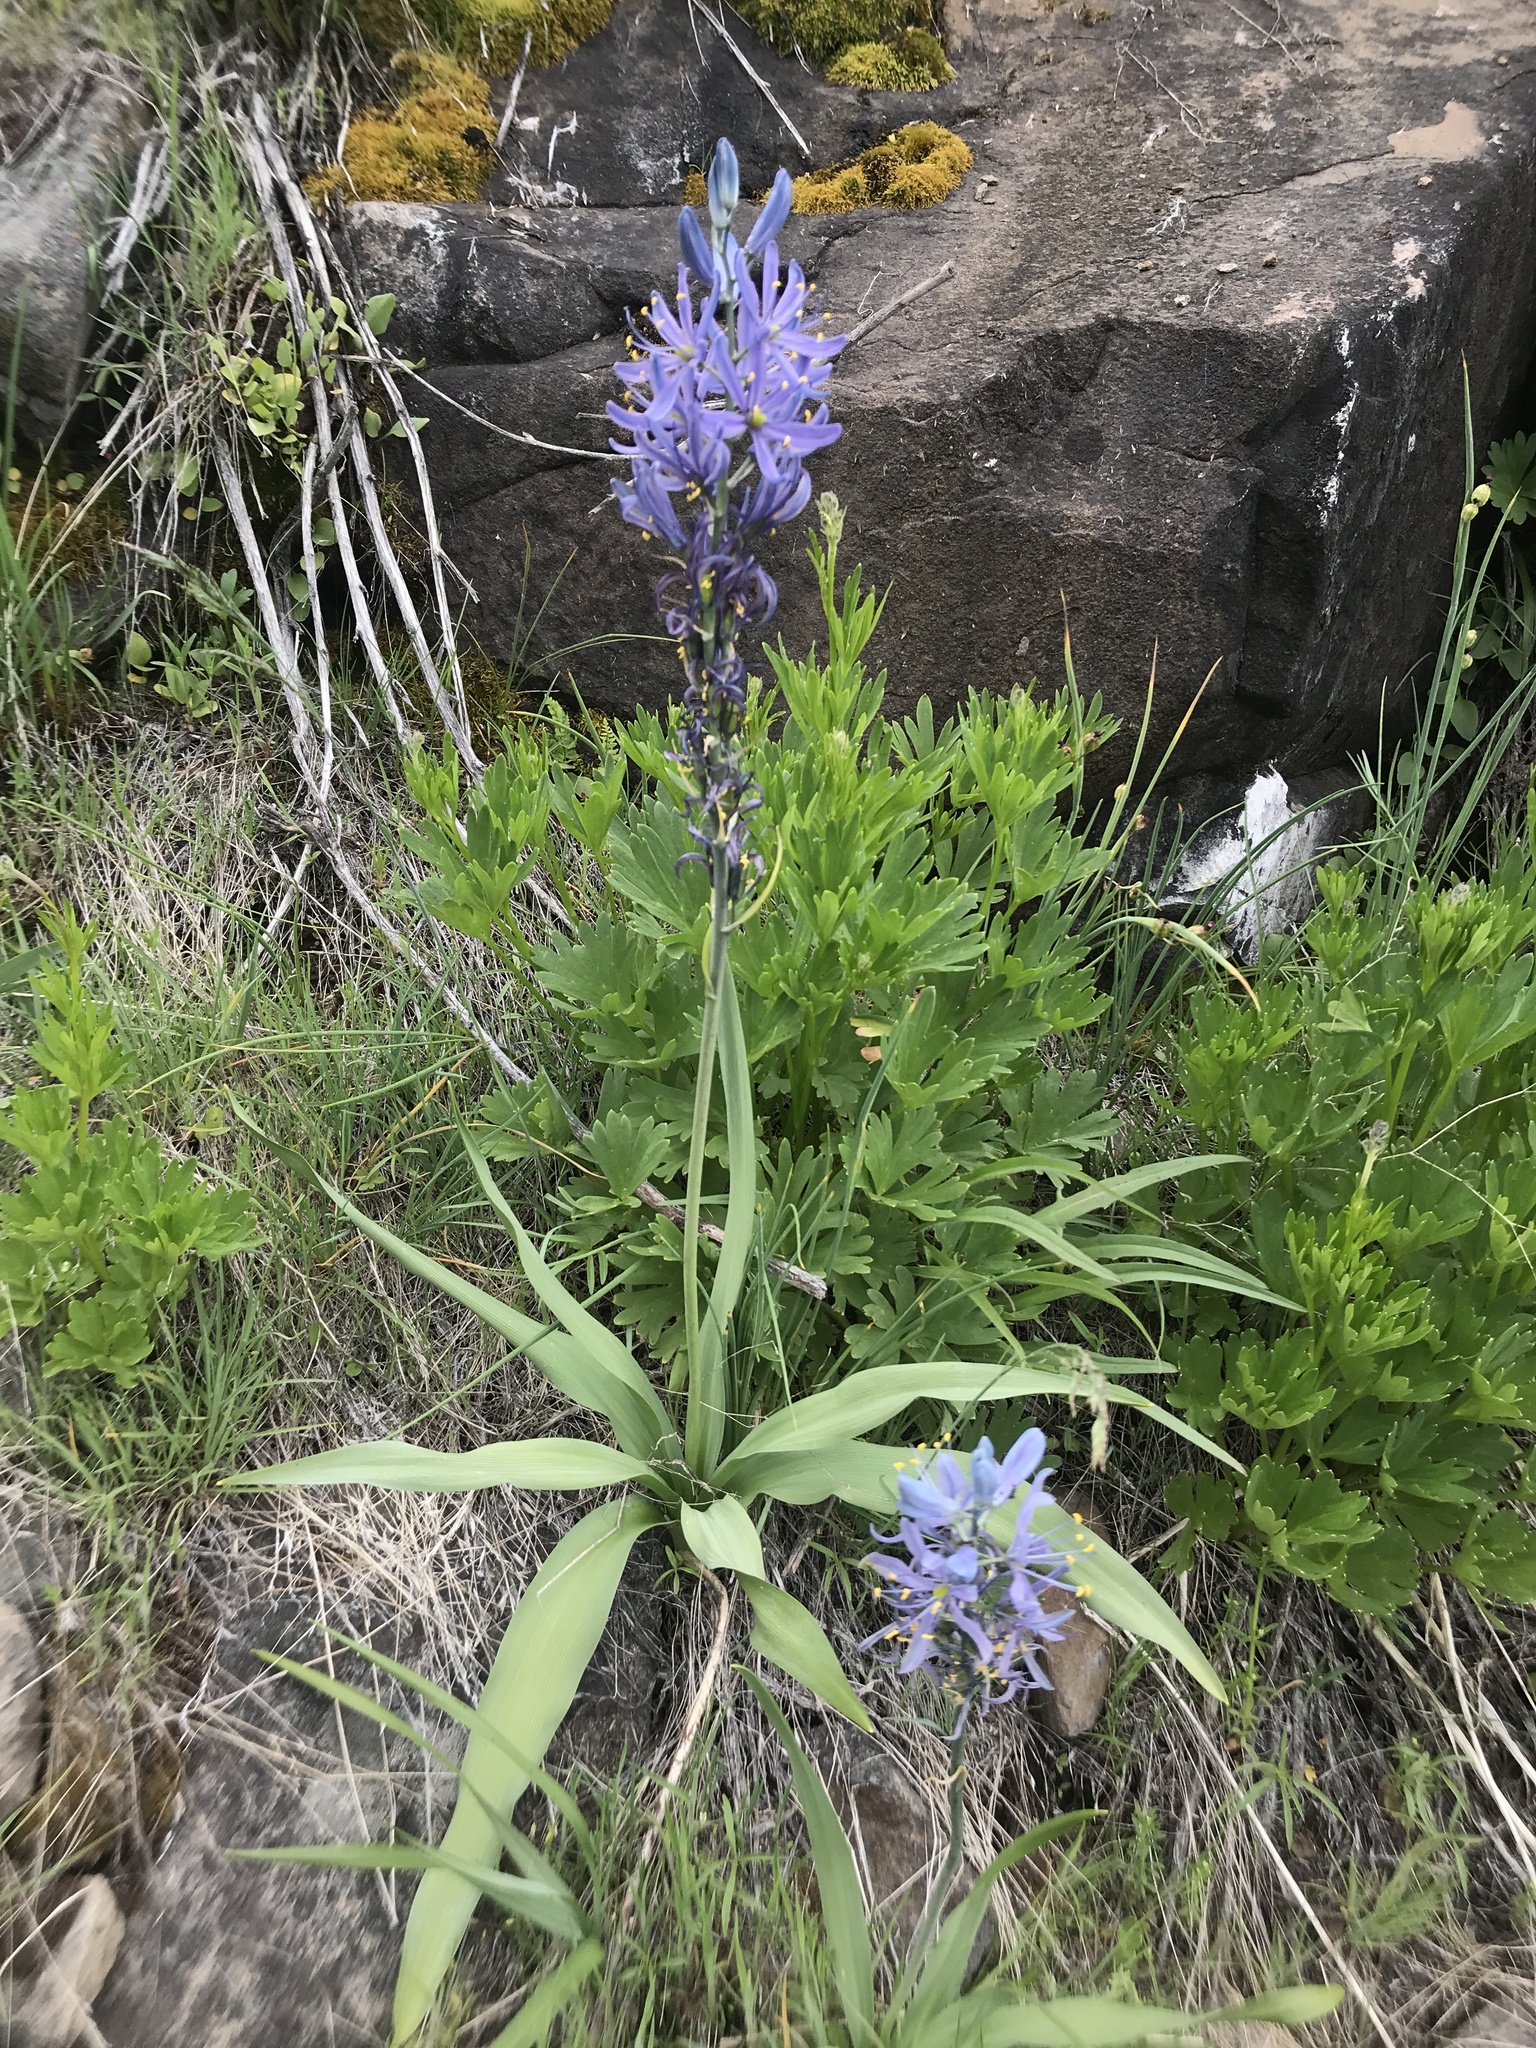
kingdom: Plantae
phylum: Tracheophyta
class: Liliopsida
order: Asparagales
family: Asparagaceae
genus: Camassia
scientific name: Camassia quamash
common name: Common camas
